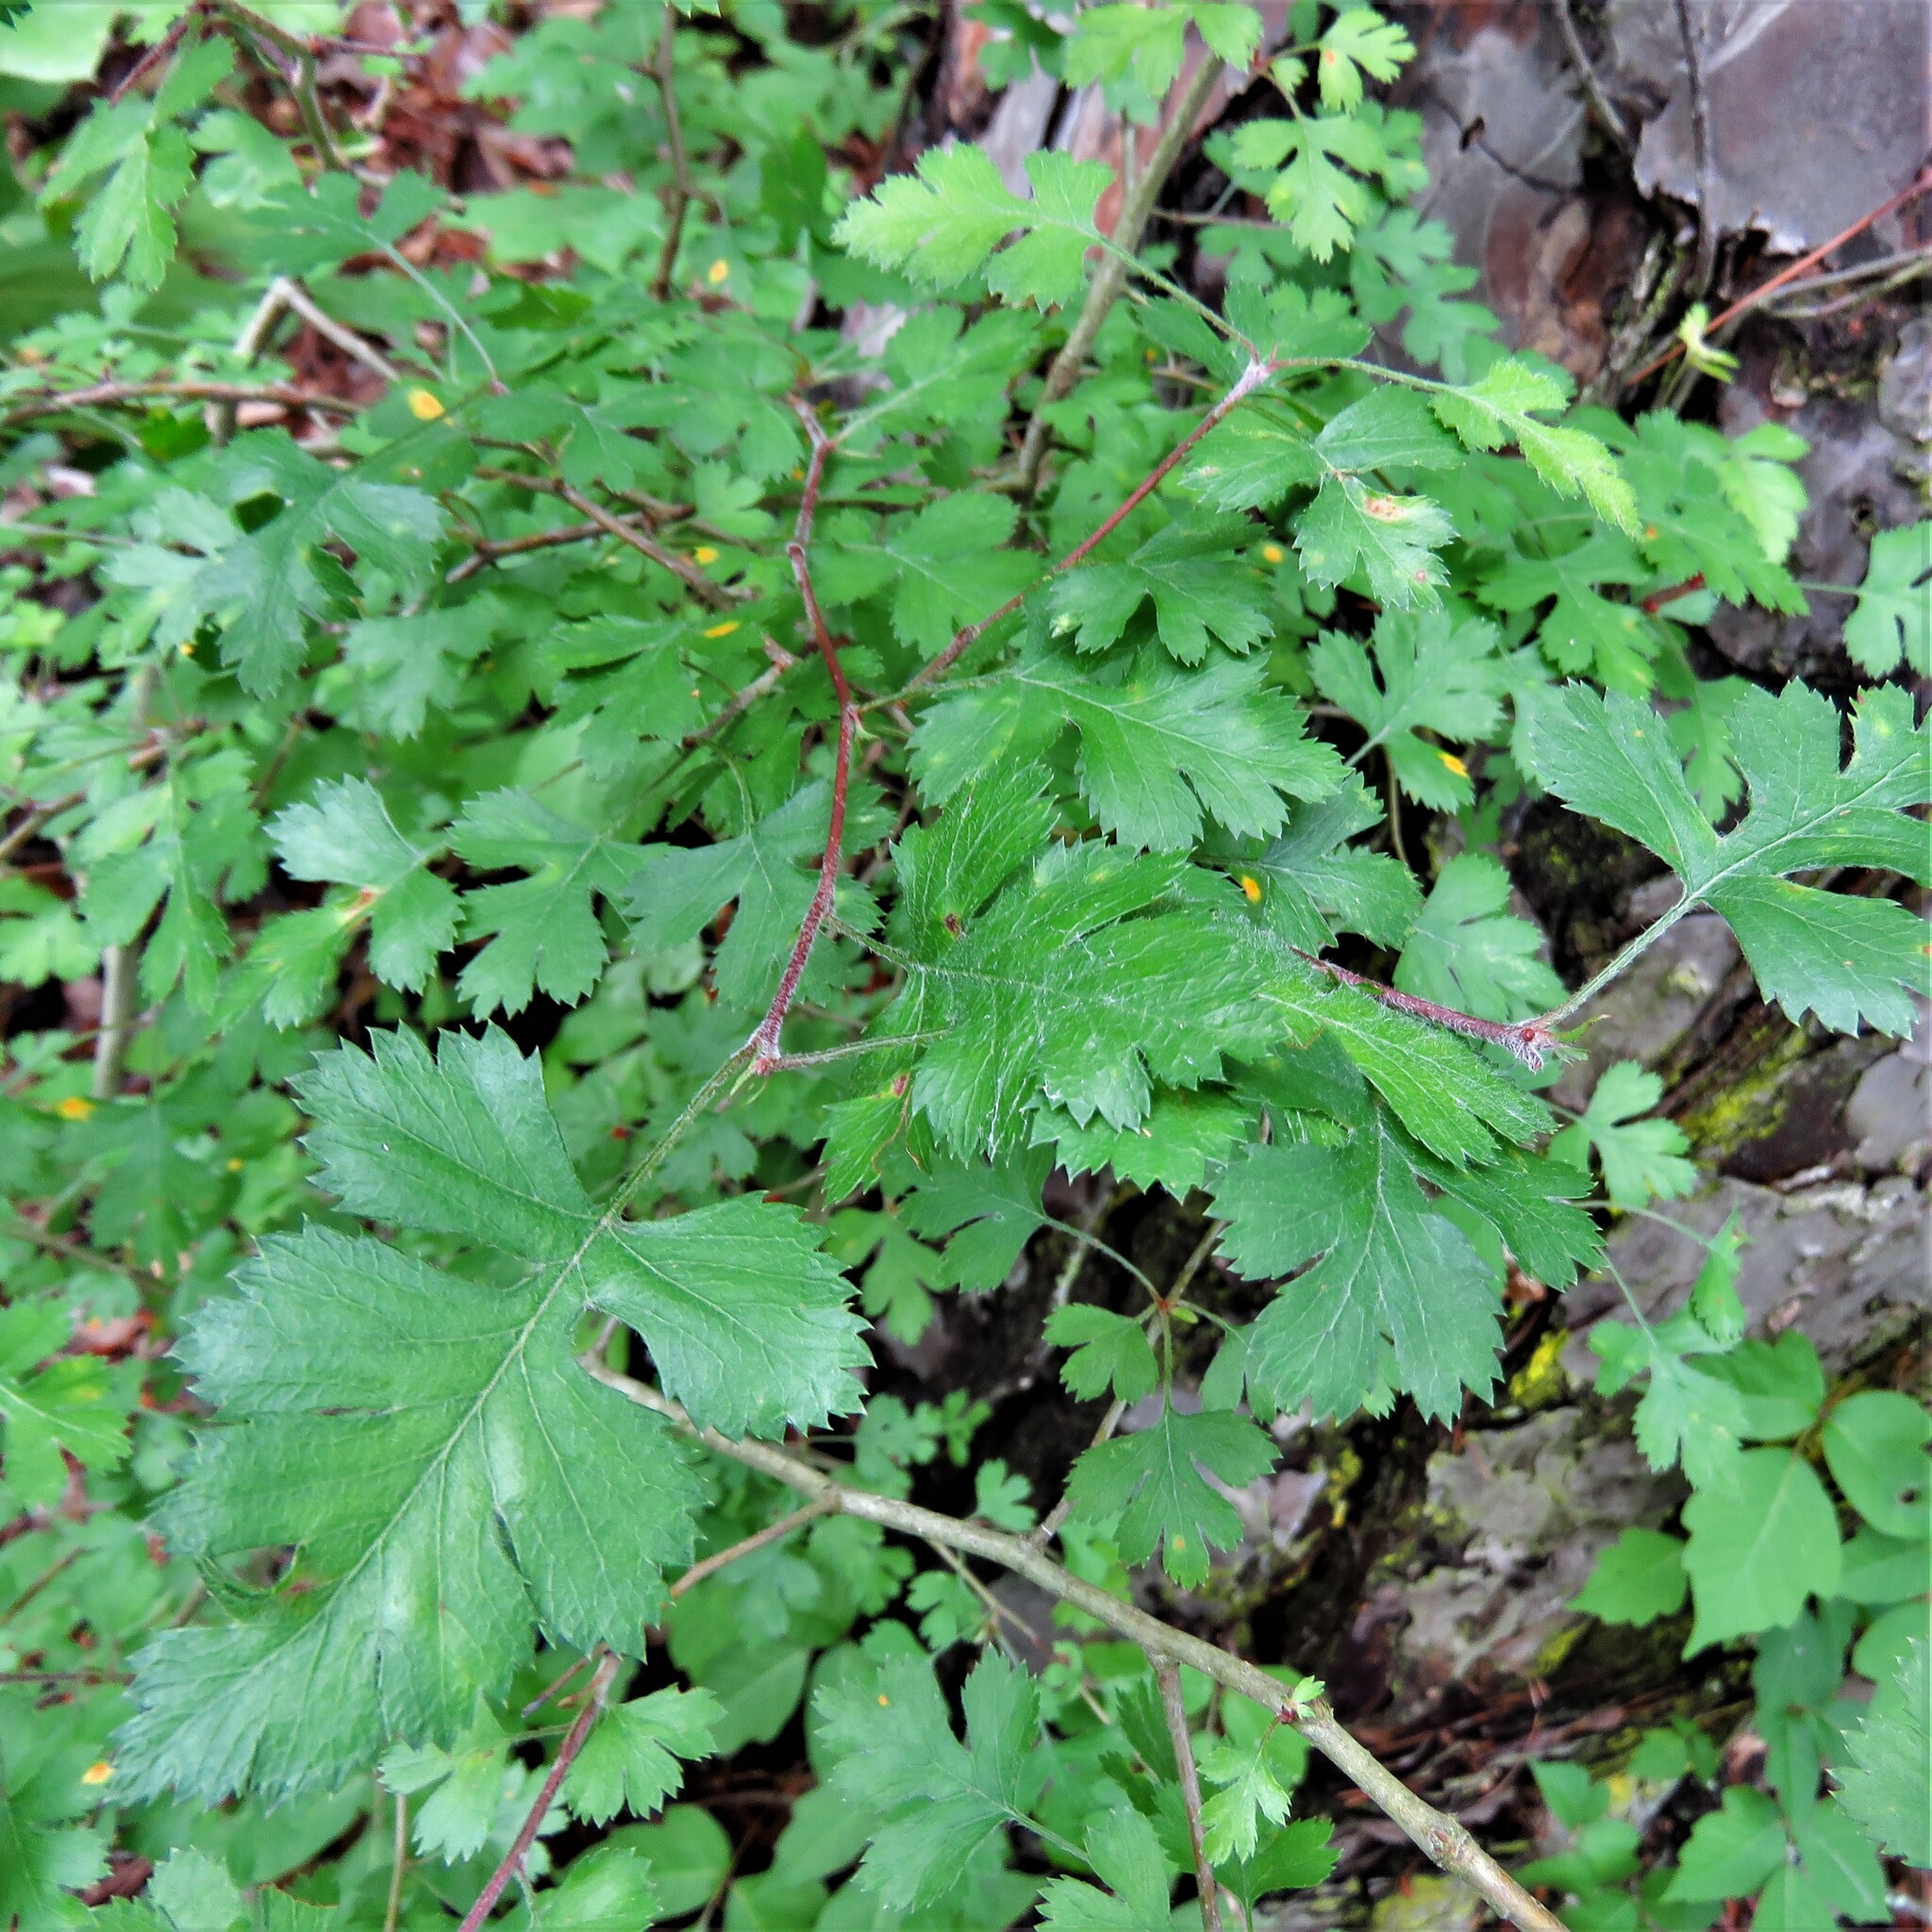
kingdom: Plantae
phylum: Tracheophyta
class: Magnoliopsida
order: Rosales
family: Rosaceae
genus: Crataegus
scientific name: Crataegus marshallii
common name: Parsley-hawthorn
